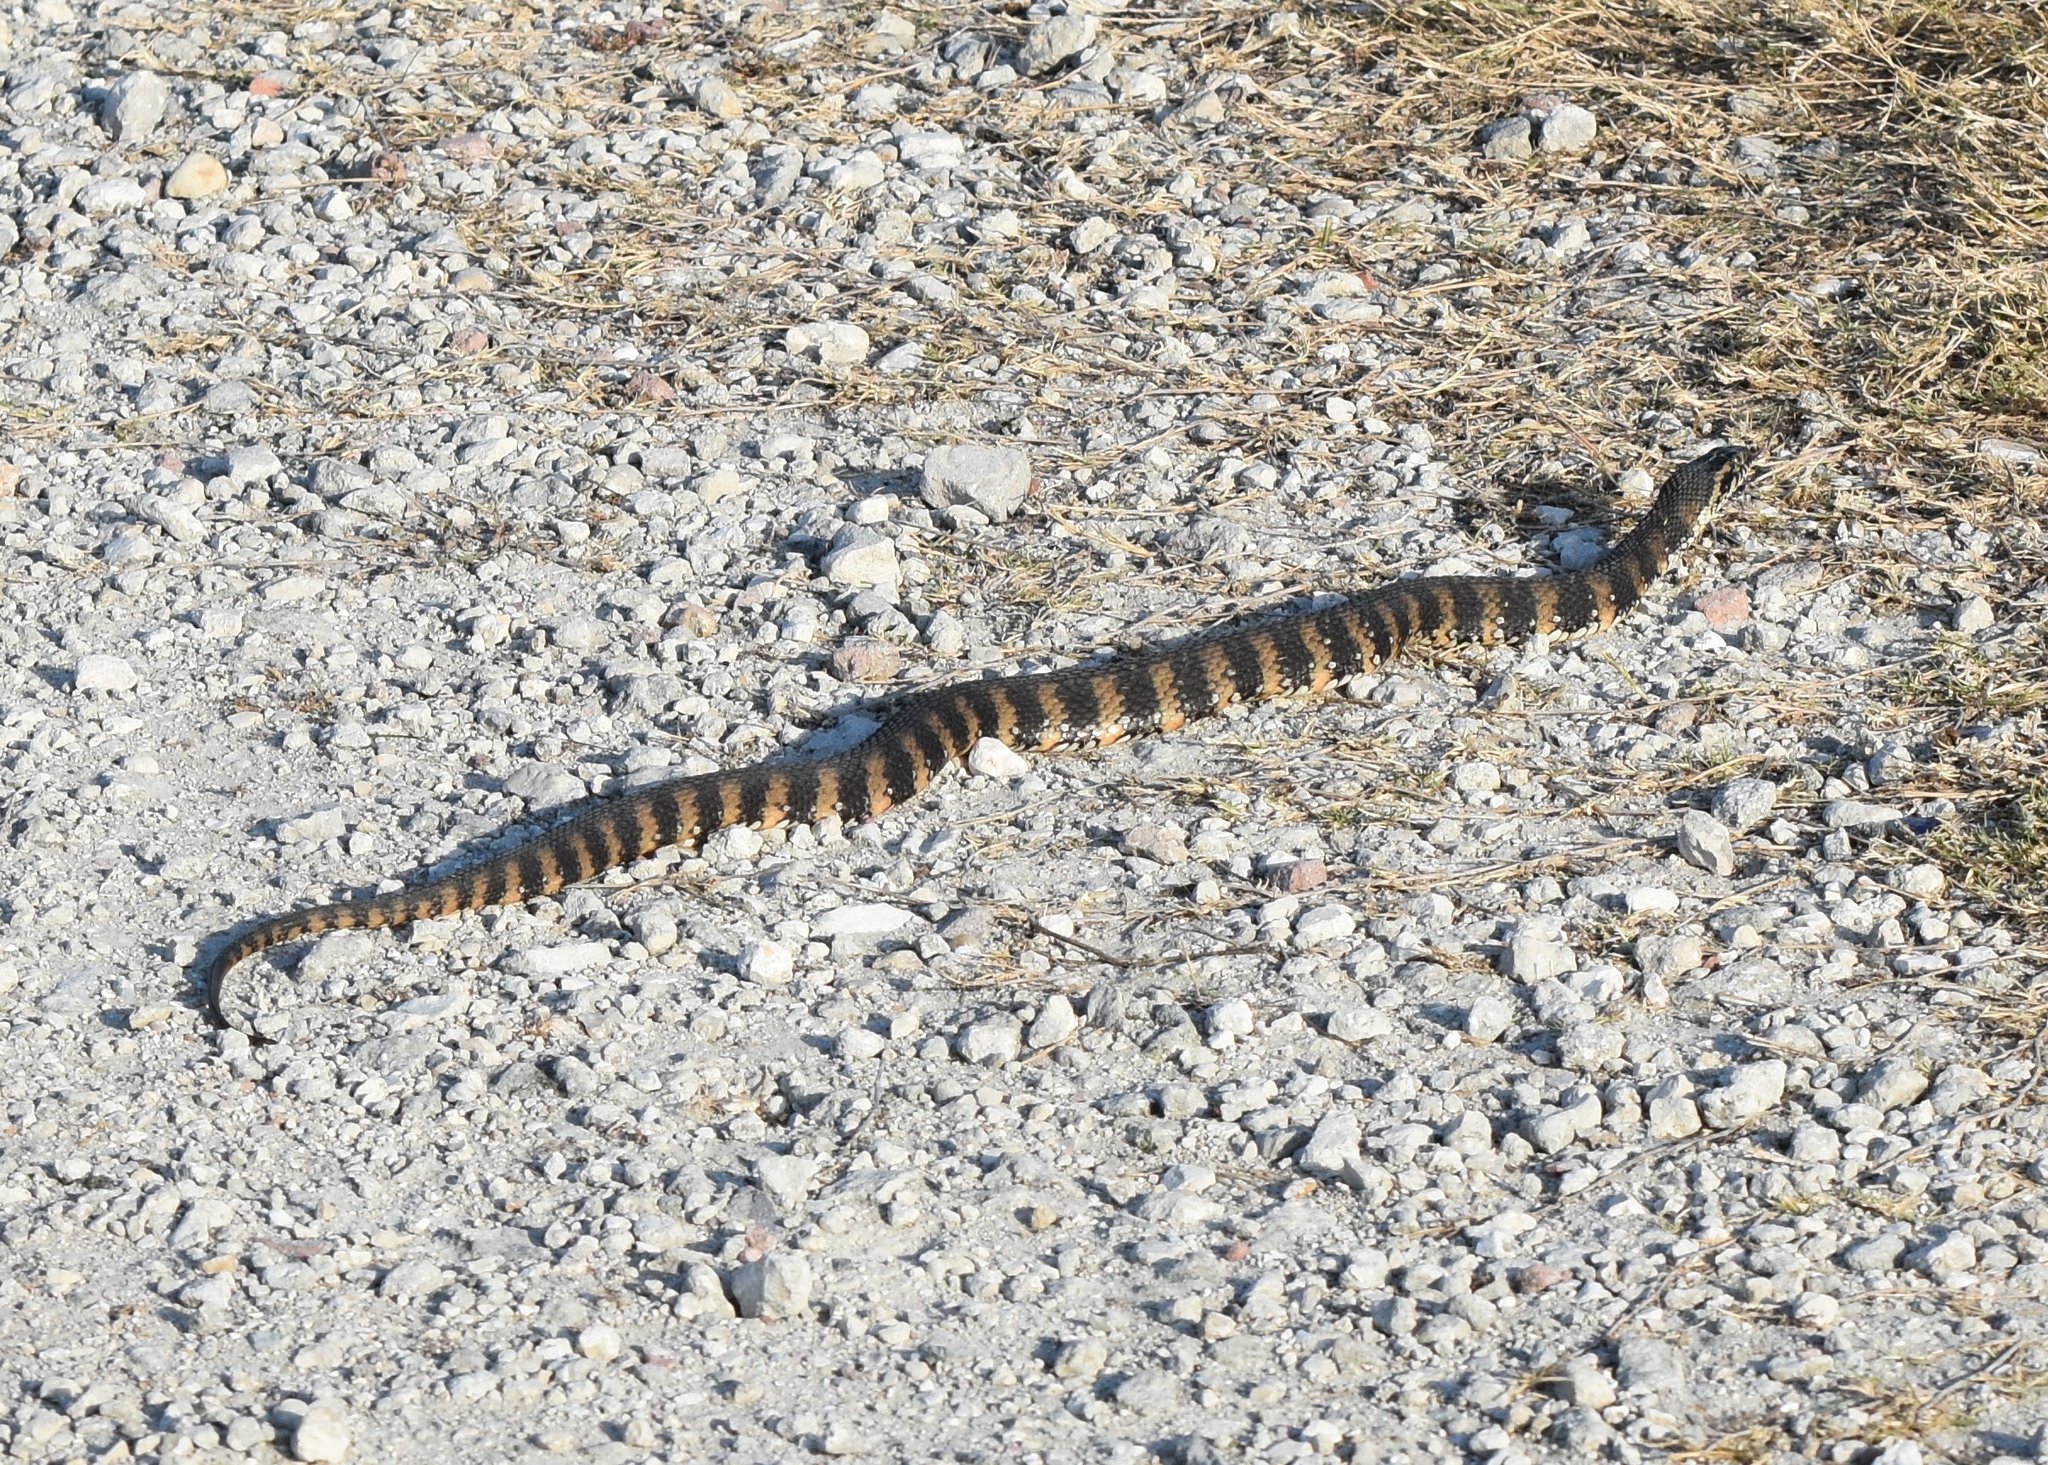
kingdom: Animalia
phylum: Chordata
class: Squamata
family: Colubridae
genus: Nerodia
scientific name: Nerodia fasciata
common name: Southern water snake
